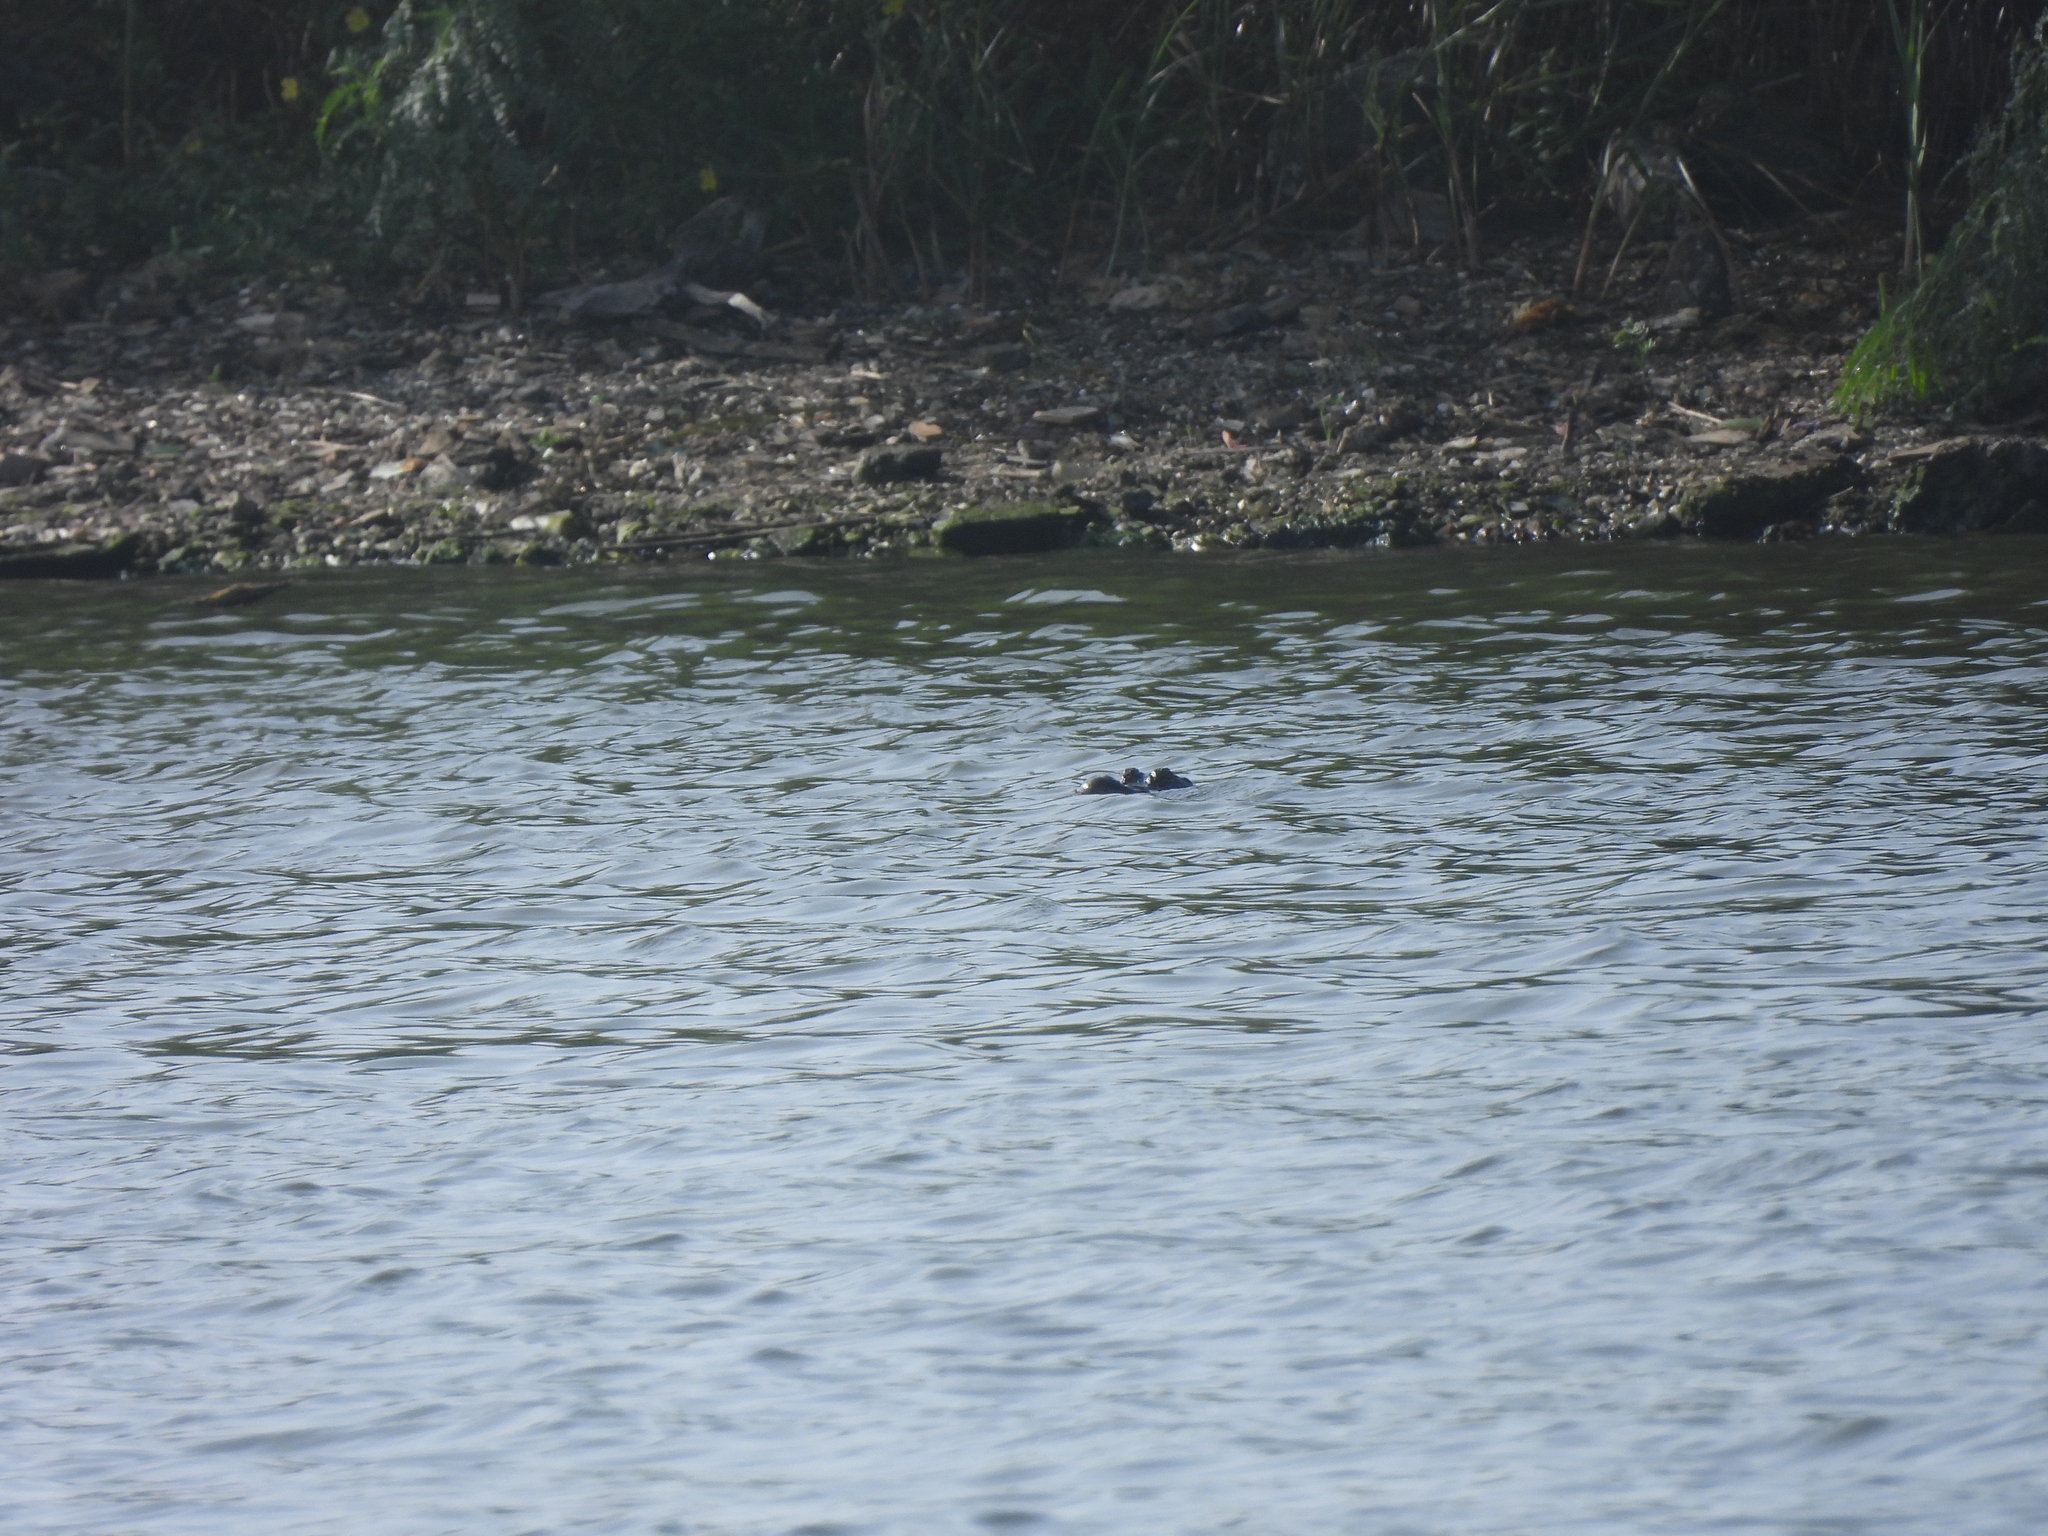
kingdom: Animalia
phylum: Chordata
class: Crocodylia
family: Alligatoridae
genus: Alligator
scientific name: Alligator mississippiensis
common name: American alligator
